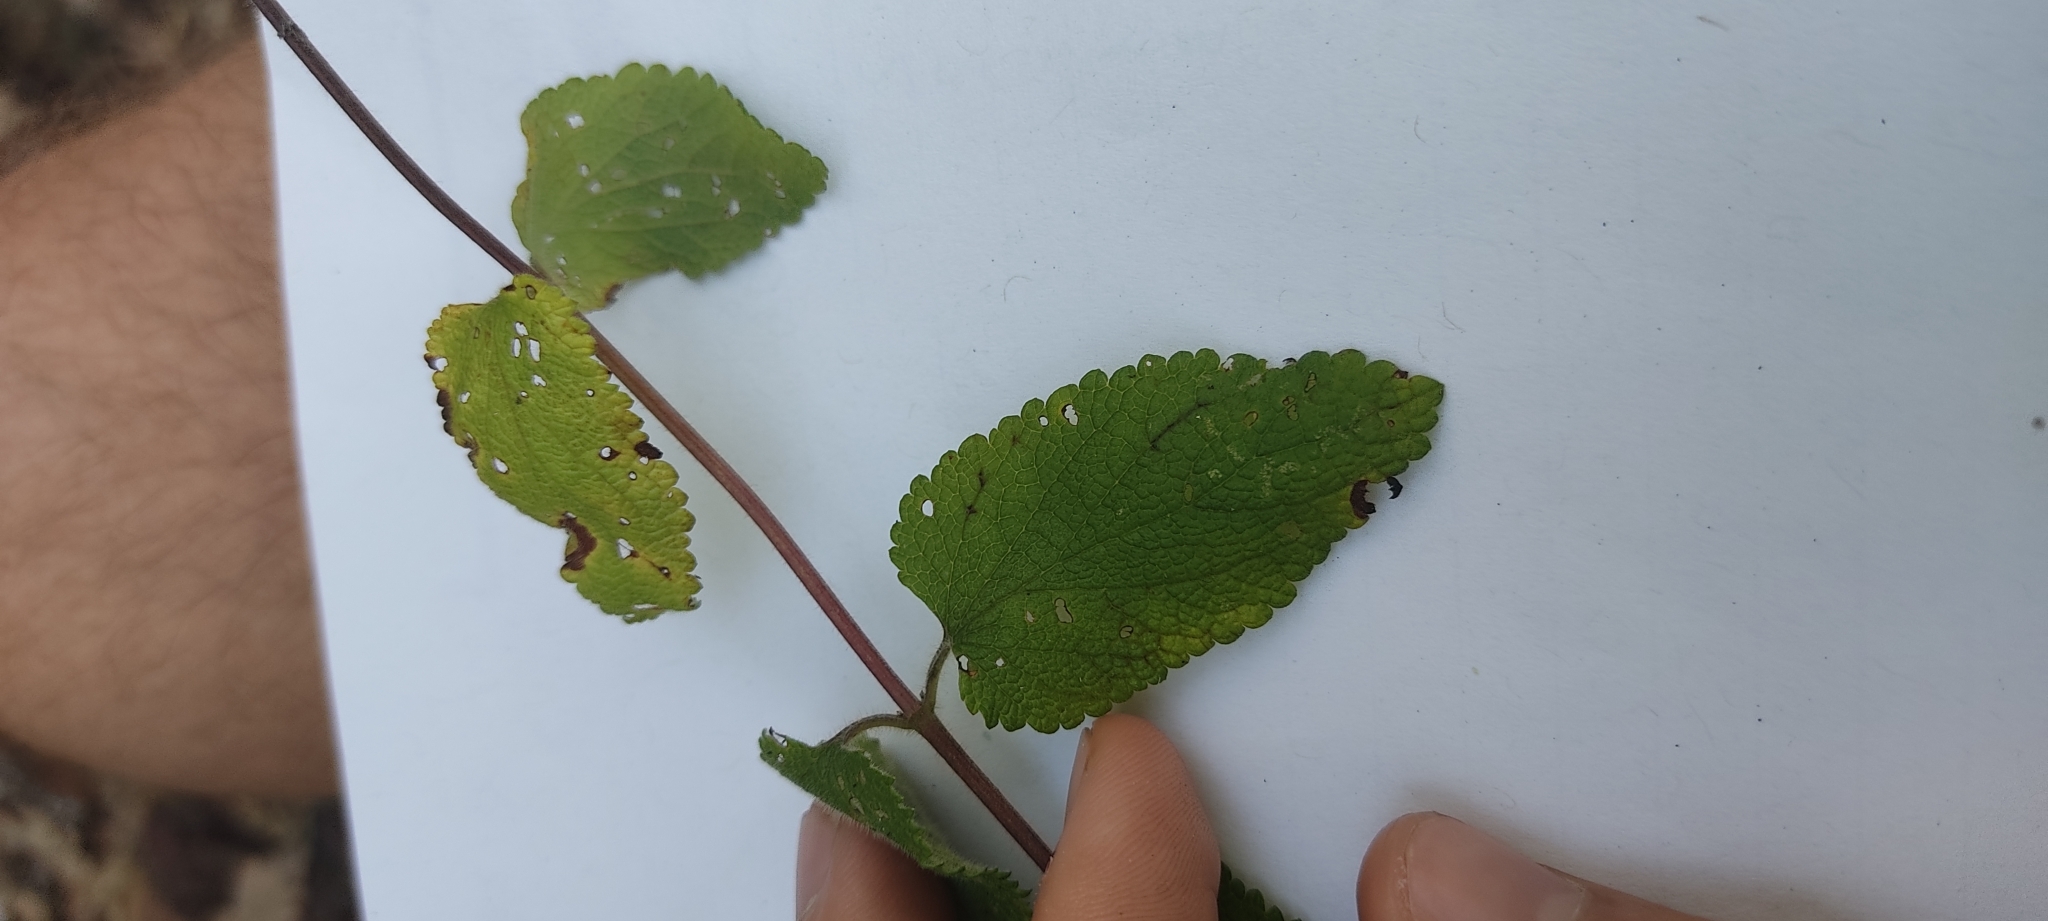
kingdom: Plantae
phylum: Tracheophyta
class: Magnoliopsida
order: Lamiales
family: Lamiaceae
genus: Teucrium
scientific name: Teucrium scorodonia
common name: Woodland germander
